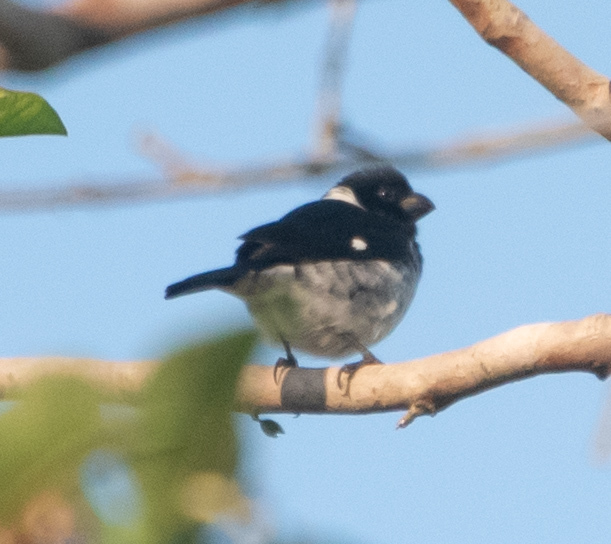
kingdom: Animalia
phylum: Chordata
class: Aves
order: Passeriformes
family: Thraupidae
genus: Sporophila
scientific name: Sporophila corvina
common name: Variable seedeater
